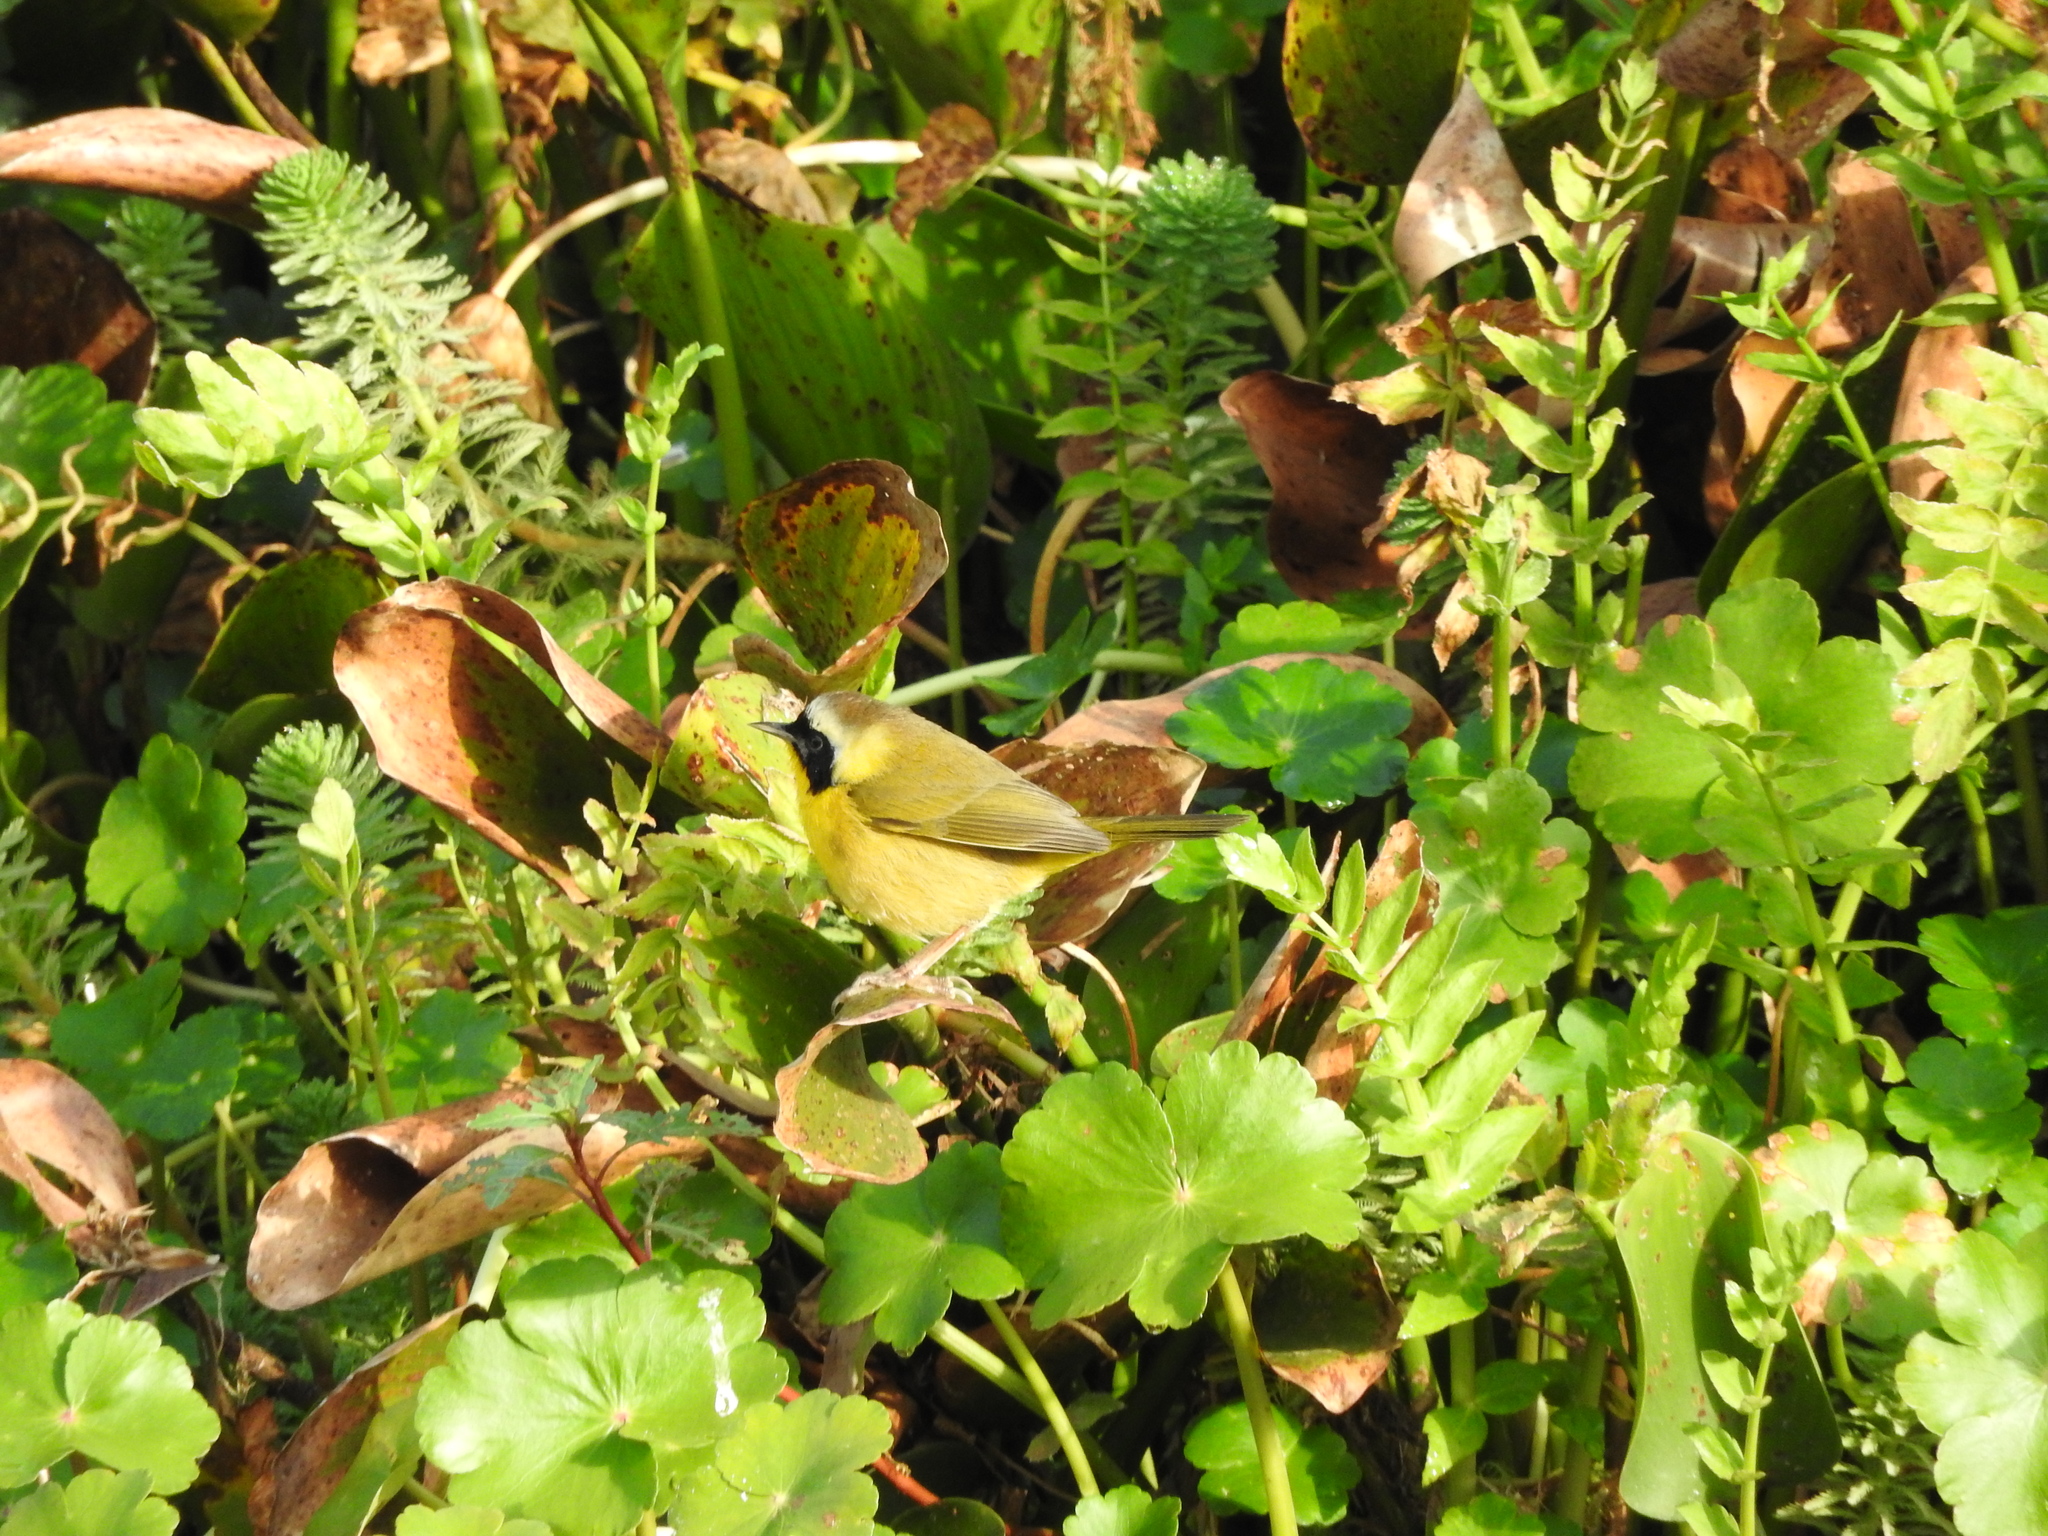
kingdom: Animalia
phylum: Chordata
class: Aves
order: Passeriformes
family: Parulidae
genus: Geothlypis
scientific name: Geothlypis trichas
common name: Common yellowthroat
